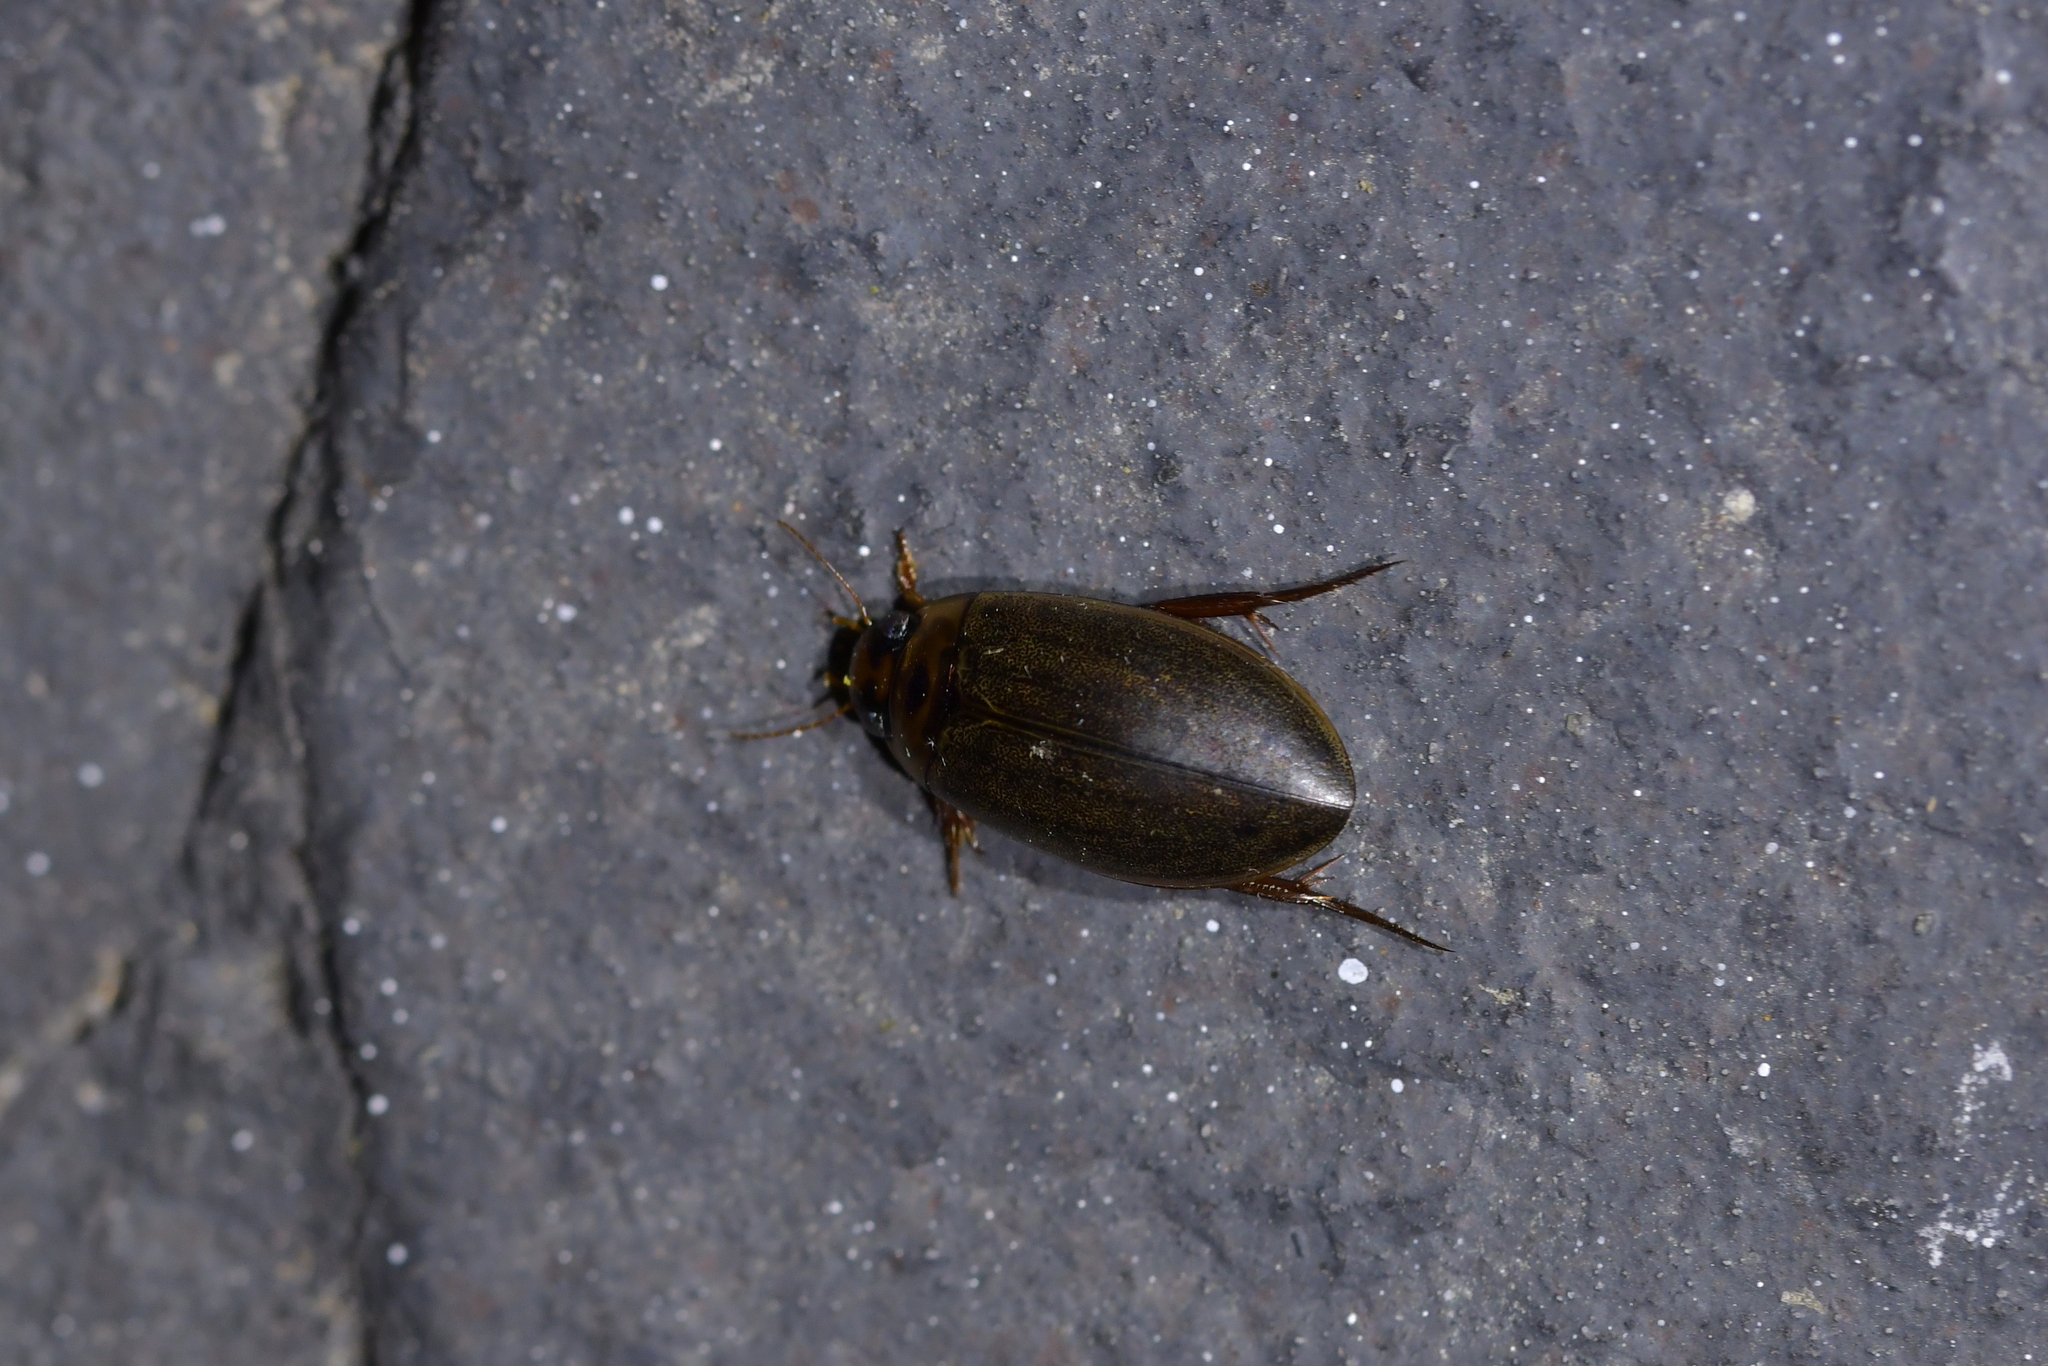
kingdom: Animalia
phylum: Arthropoda
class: Insecta
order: Coleoptera
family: Dytiscidae
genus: Rhantus
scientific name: Rhantus suturalis
